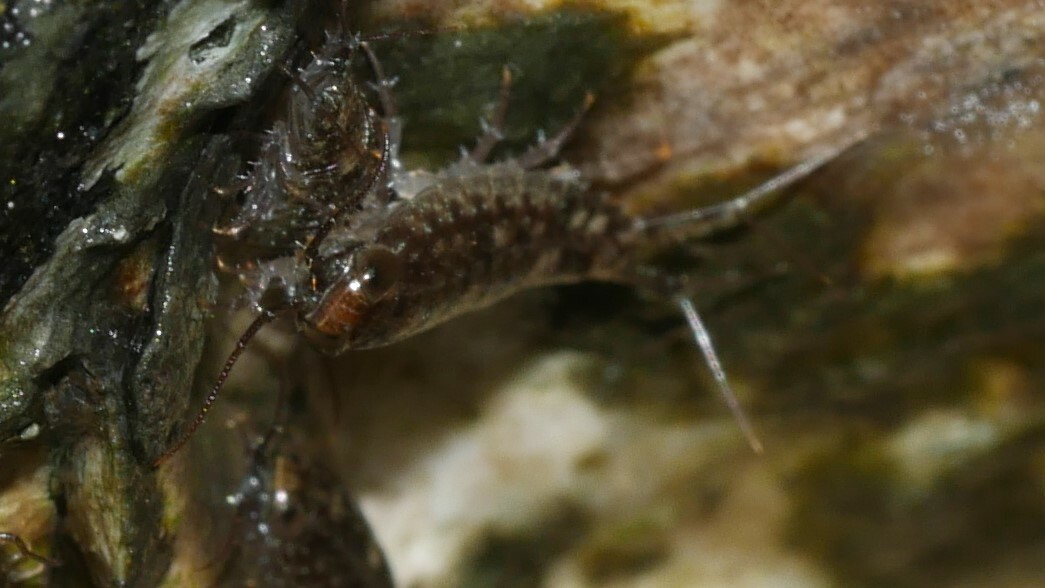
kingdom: Animalia
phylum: Arthropoda
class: Malacostraca
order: Isopoda
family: Ligiidae
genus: Ligia
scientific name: Ligia exotica
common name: Wharf roach
